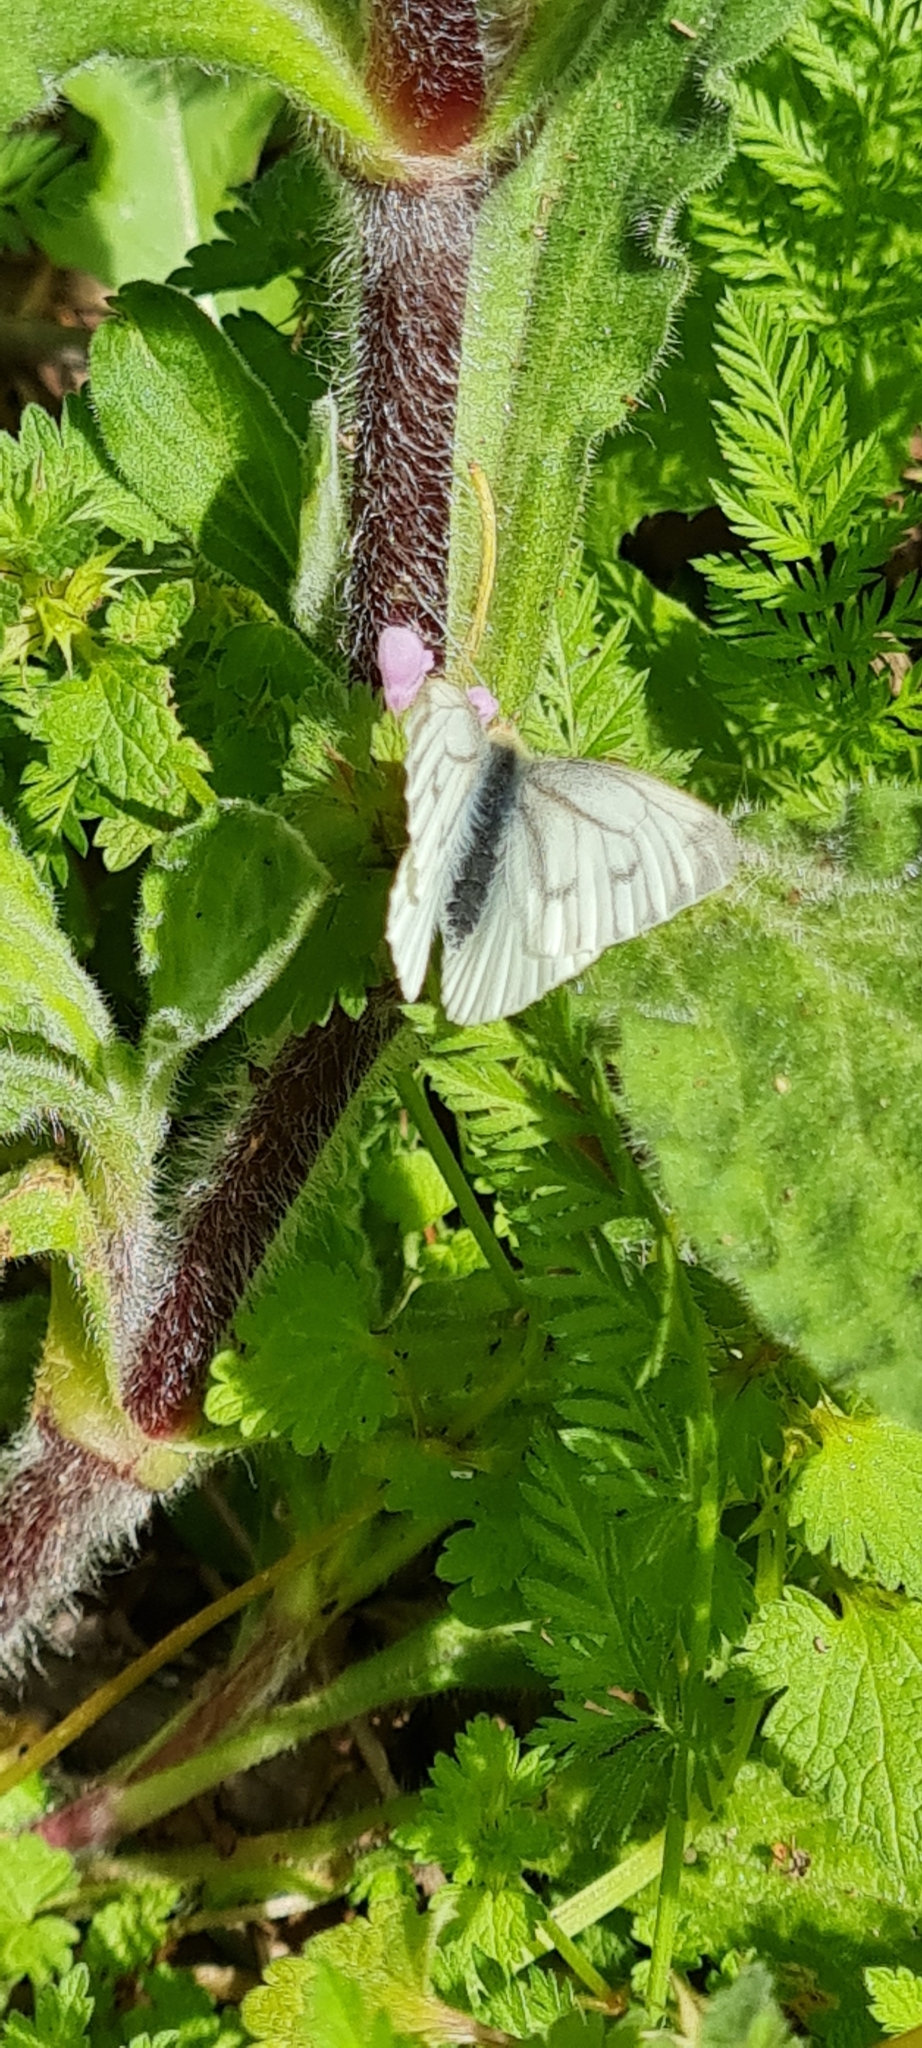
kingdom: Animalia
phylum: Arthropoda
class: Insecta
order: Lepidoptera
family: Pieridae
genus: Pieris
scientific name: Pieris napi
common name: Green-veined white
